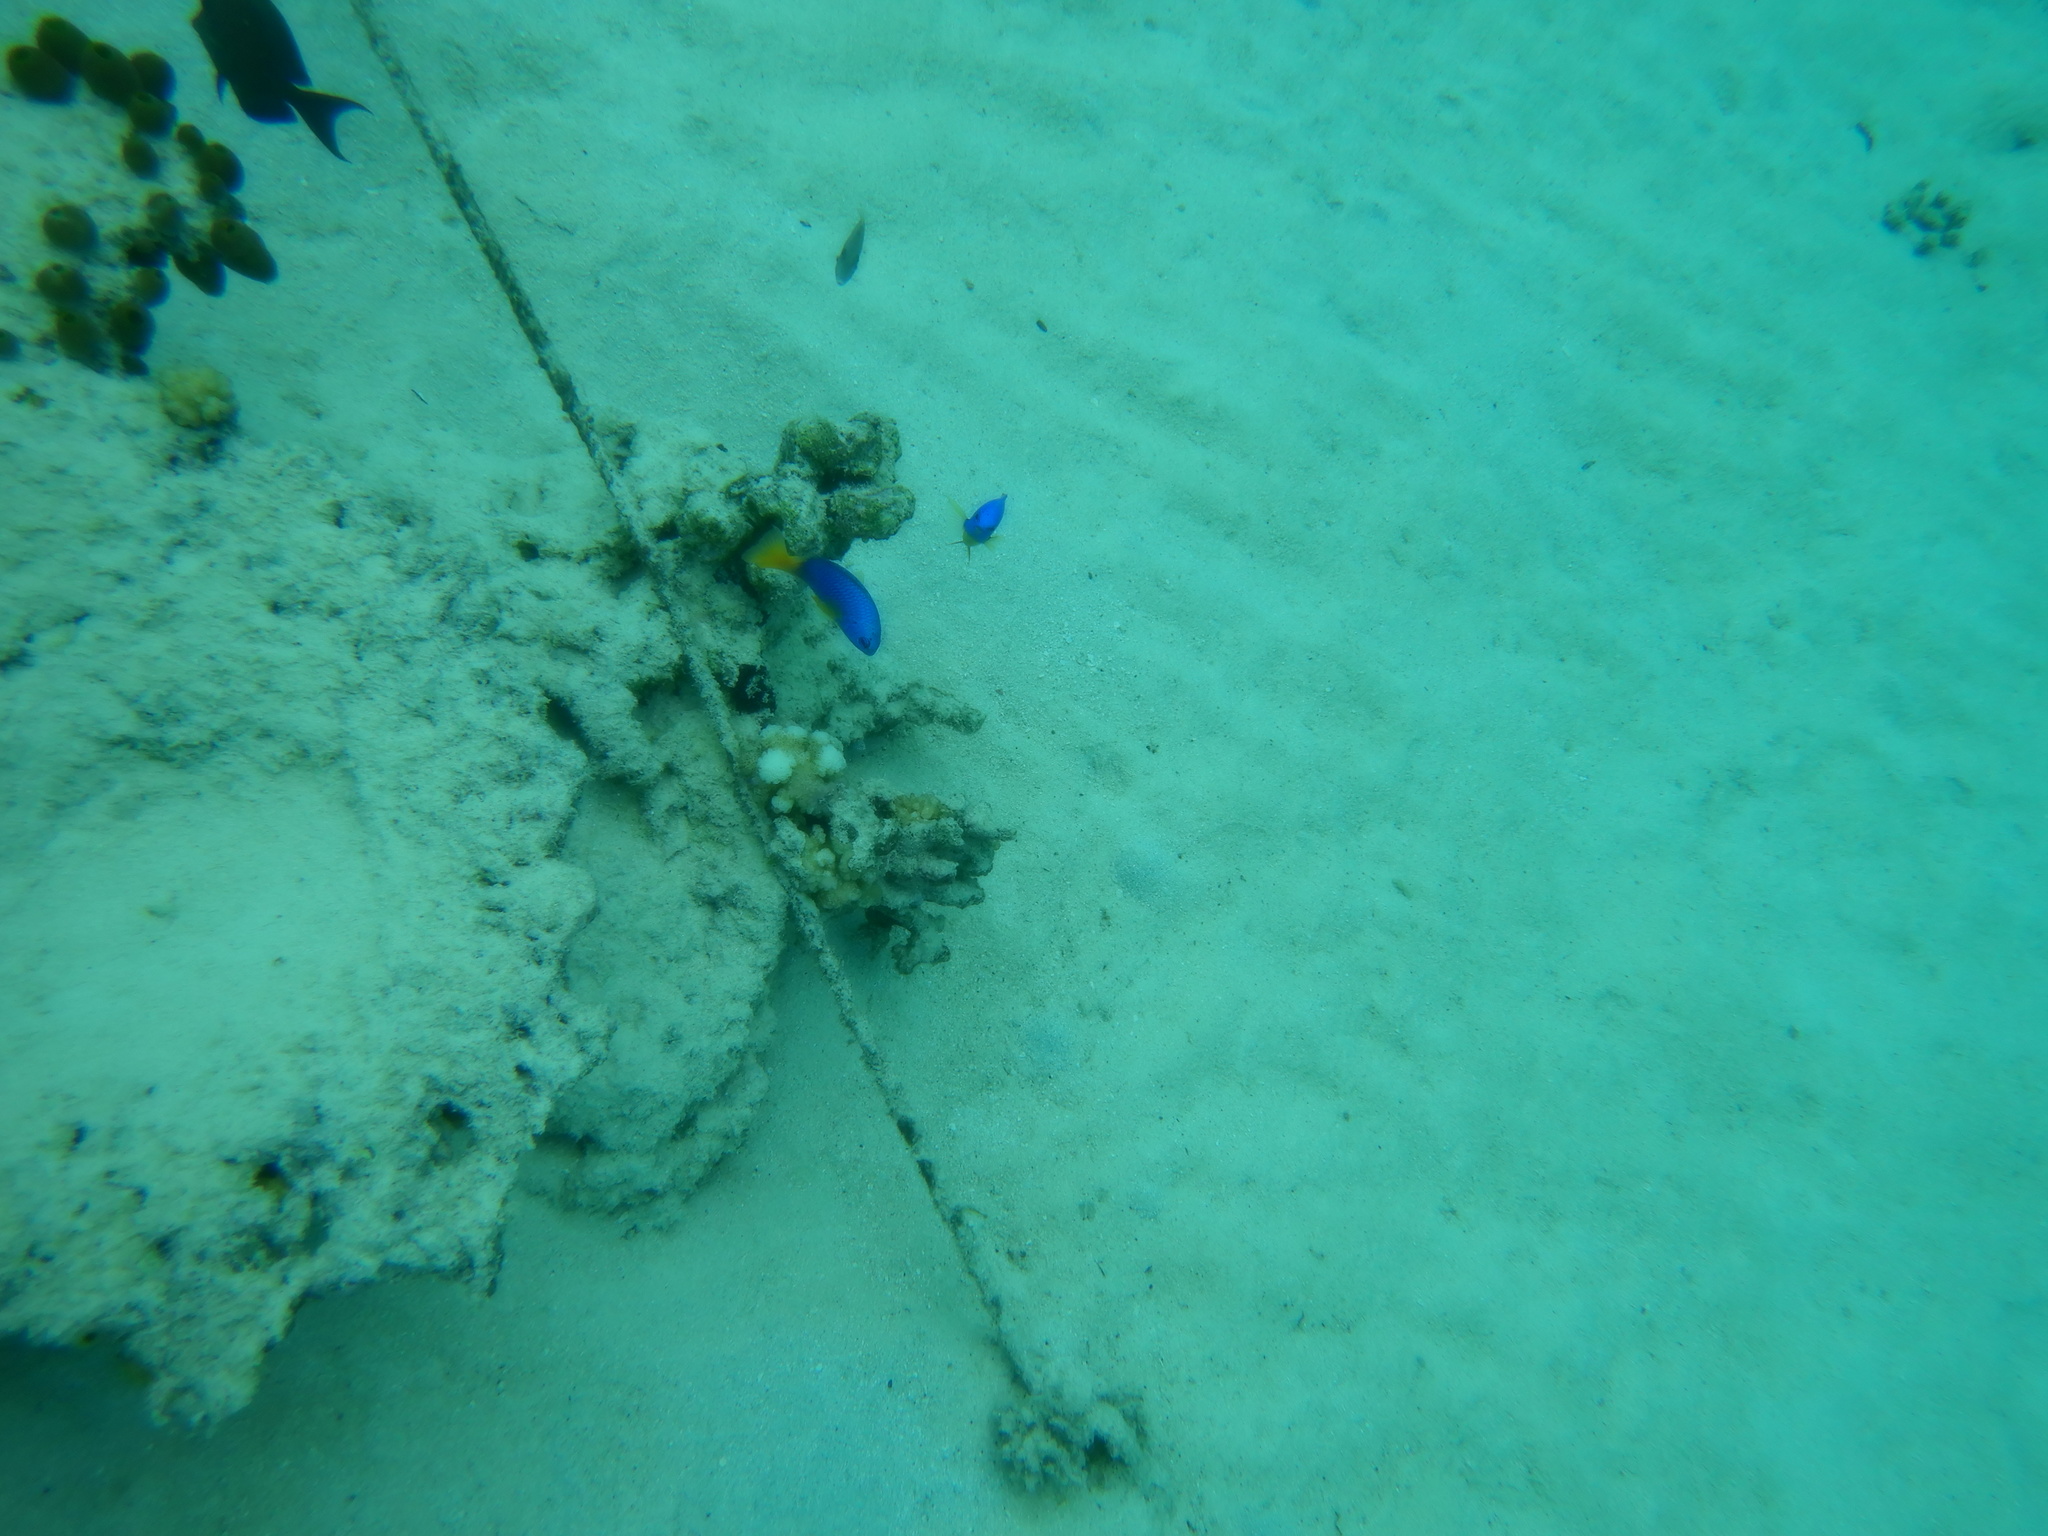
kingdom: Animalia
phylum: Chordata
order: Perciformes
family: Pomacentridae
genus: Pomacentrus
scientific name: Pomacentrus caeruleus
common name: Caerulean damsel
